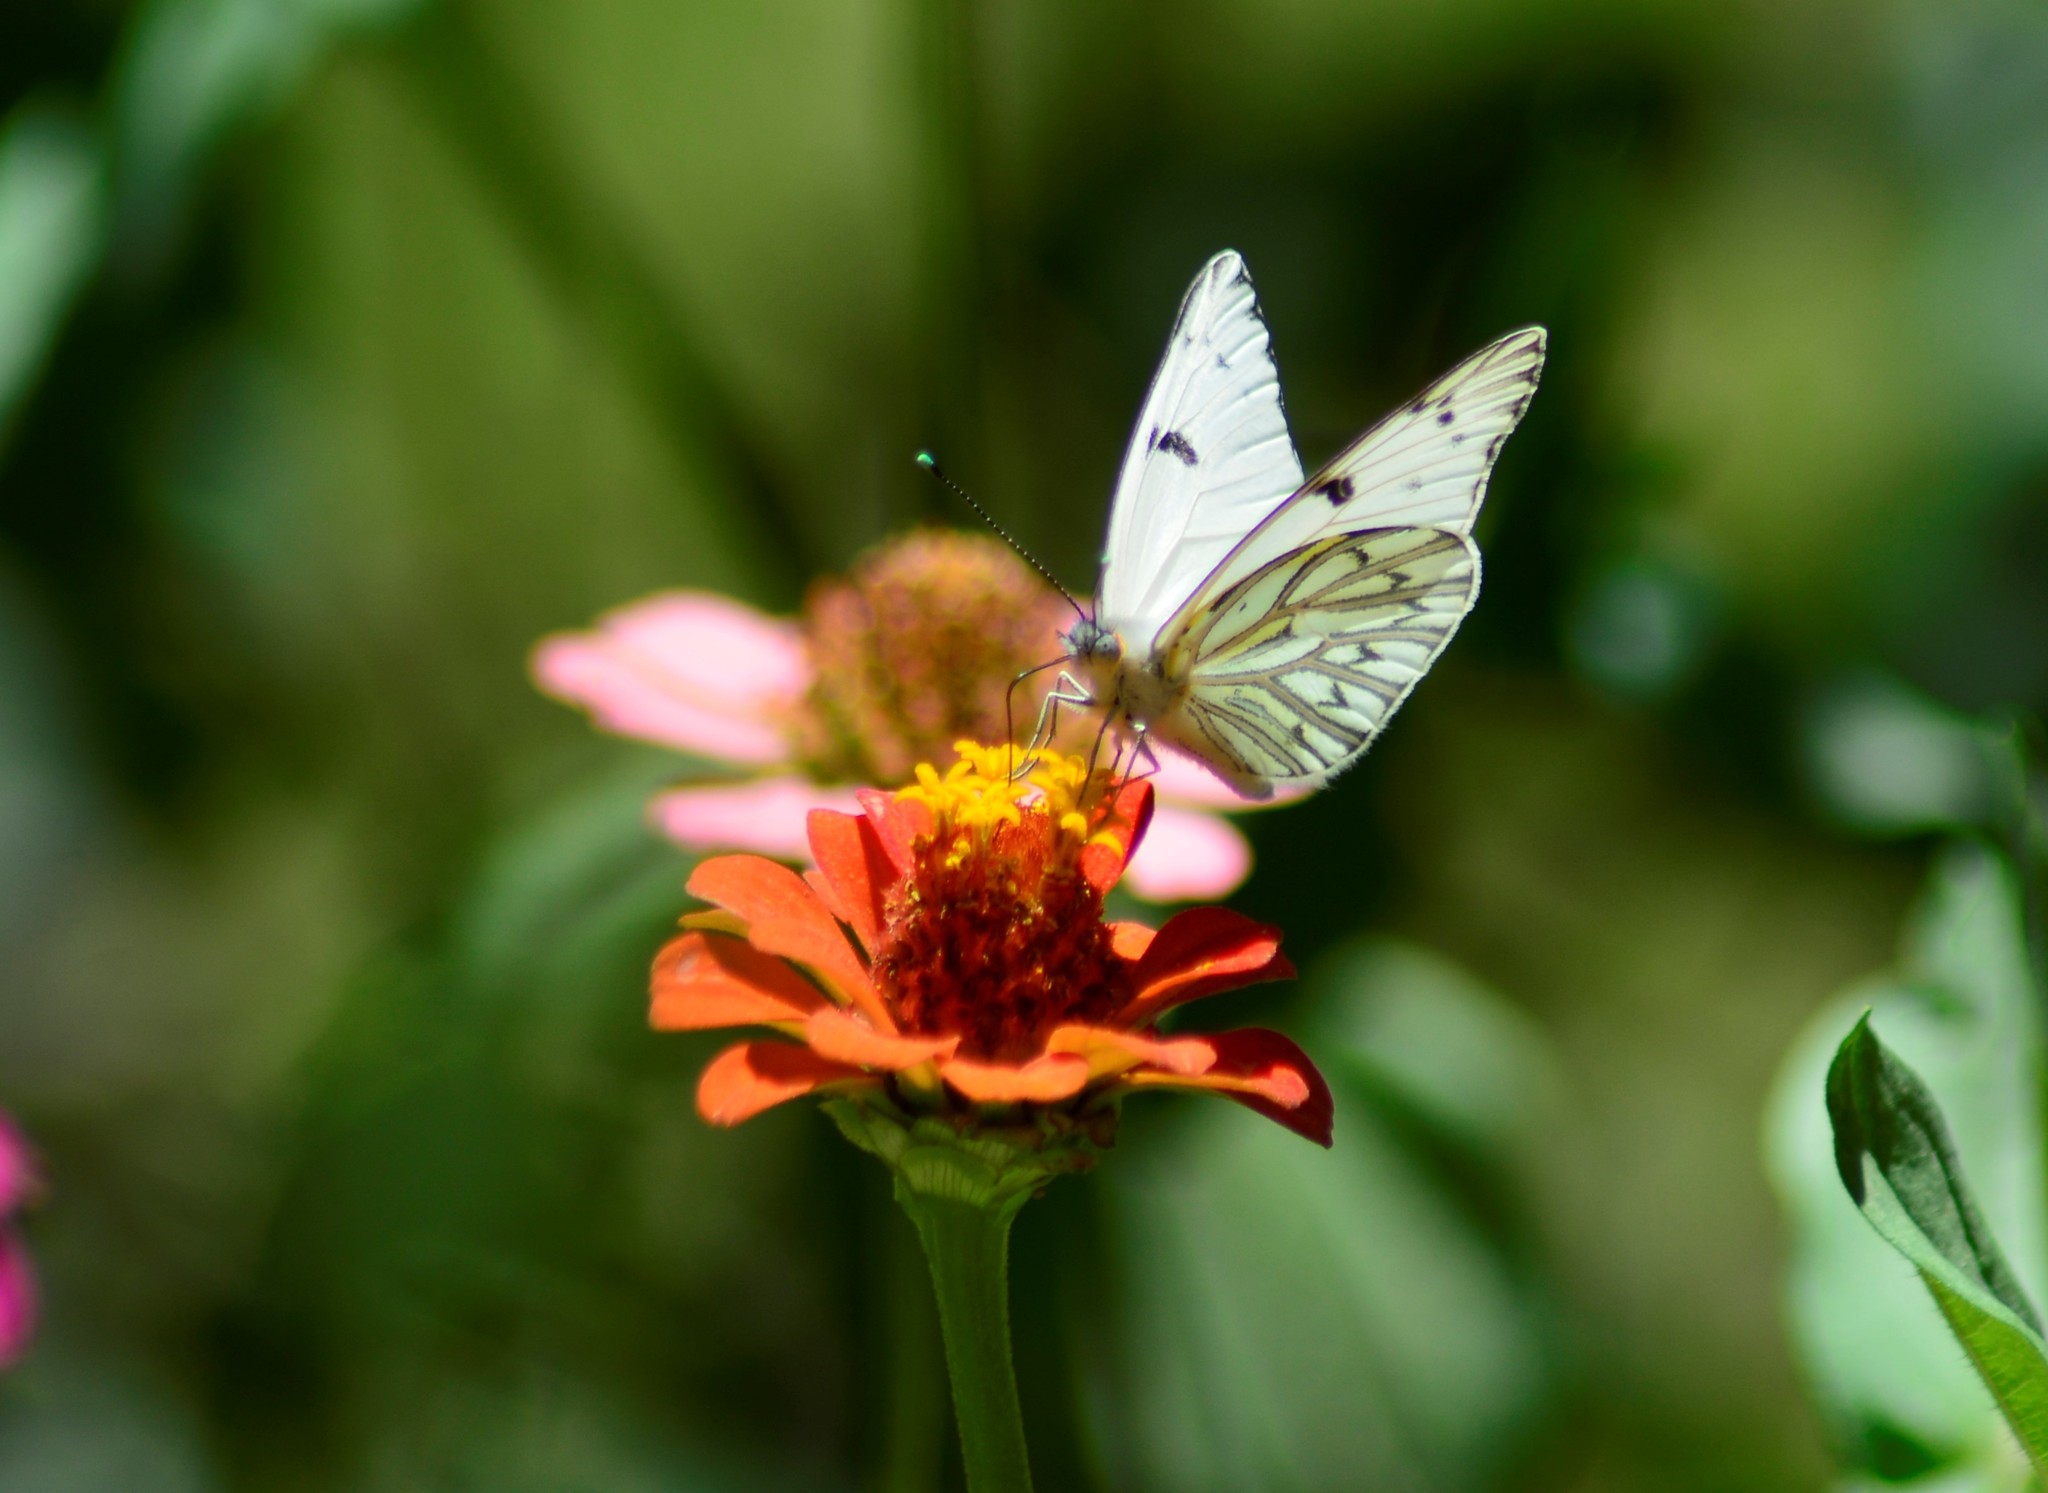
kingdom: Animalia
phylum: Arthropoda
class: Insecta
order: Lepidoptera
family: Pieridae
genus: Tatochila
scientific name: Tatochila autodice
